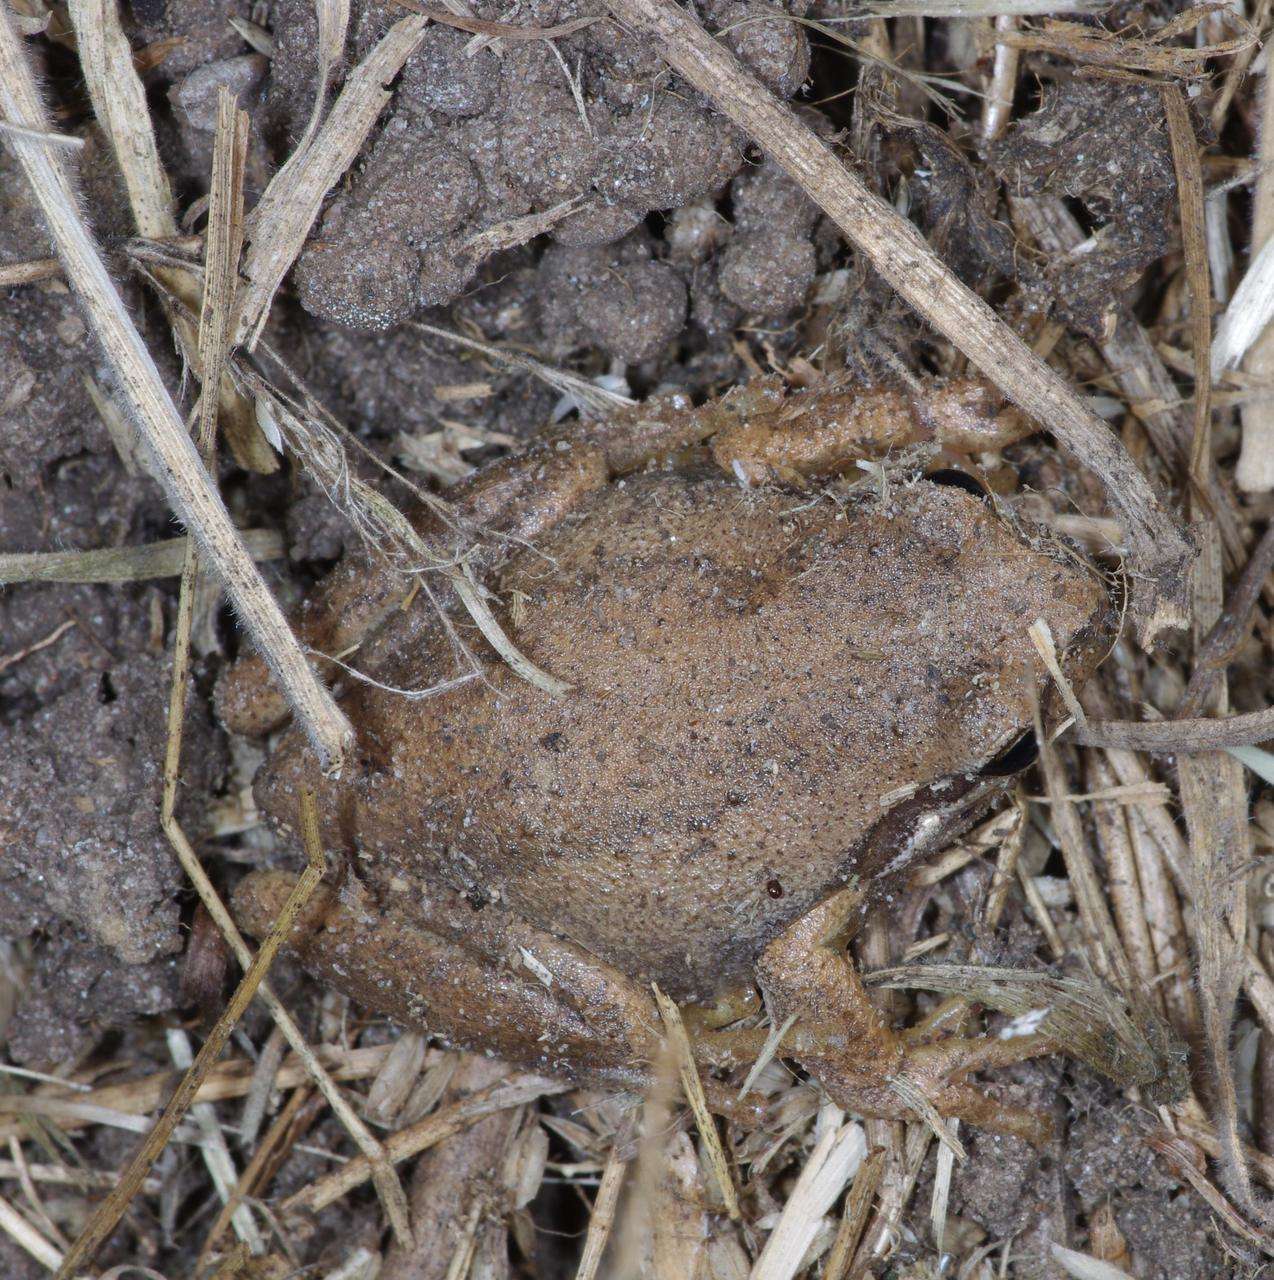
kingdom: Animalia
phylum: Chordata
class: Amphibia
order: Anura
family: Pelodryadidae
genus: Litoria
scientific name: Litoria ewingii
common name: Southern brown tree frog
